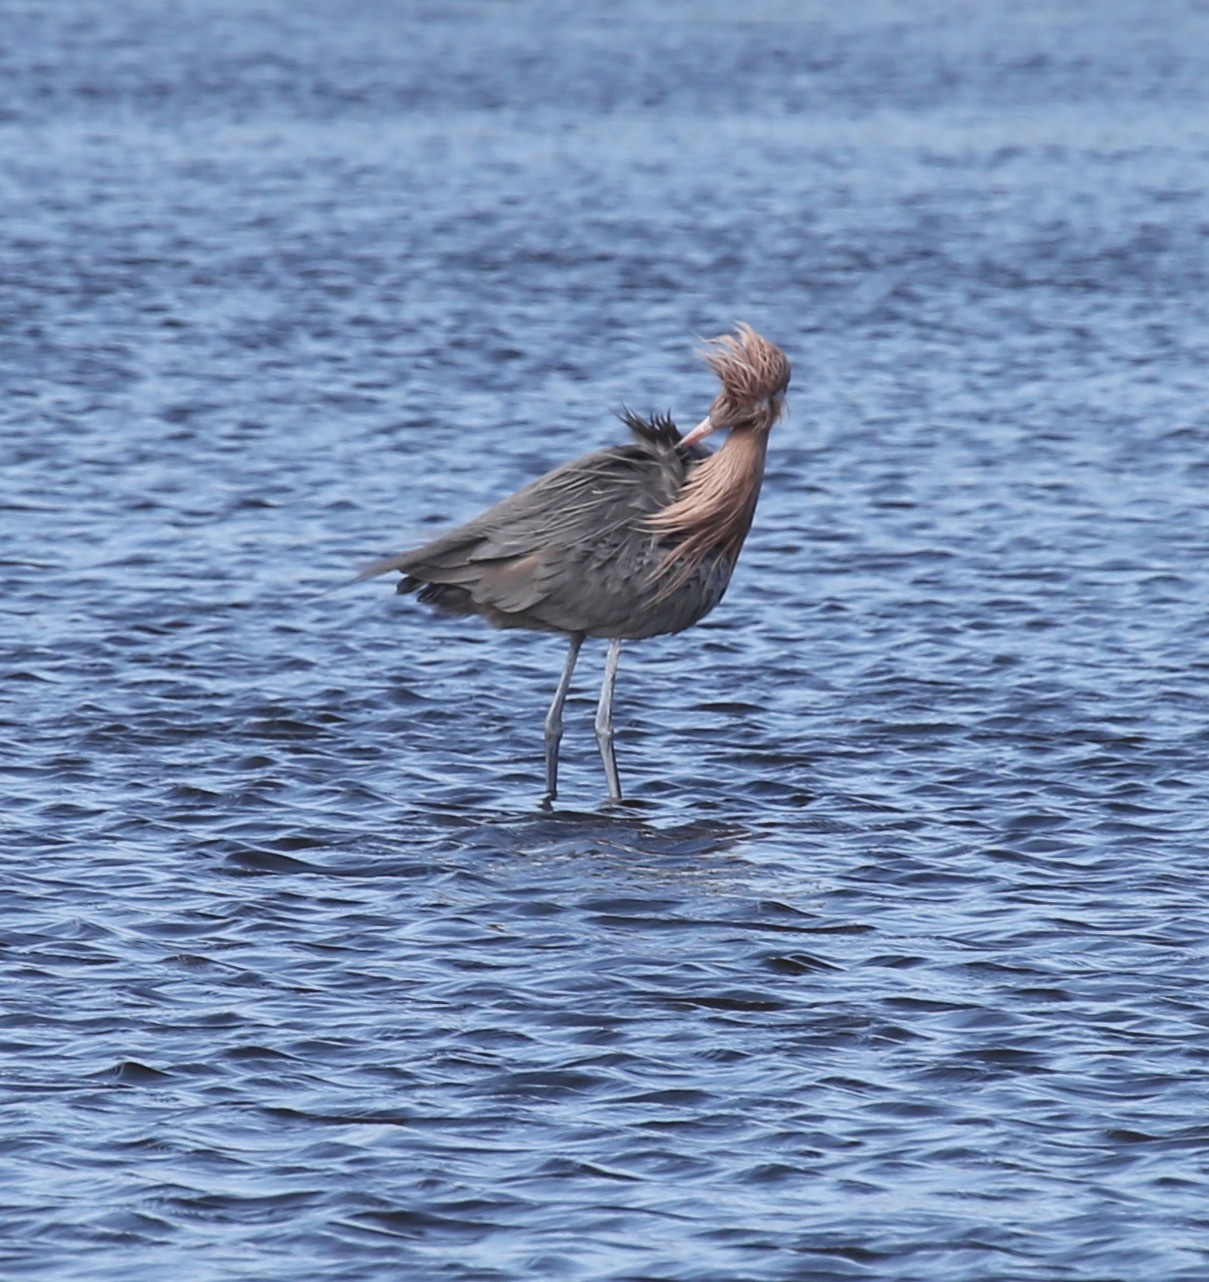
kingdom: Animalia
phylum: Chordata
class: Aves
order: Pelecaniformes
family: Ardeidae
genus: Egretta
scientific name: Egretta rufescens
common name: Reddish egret
